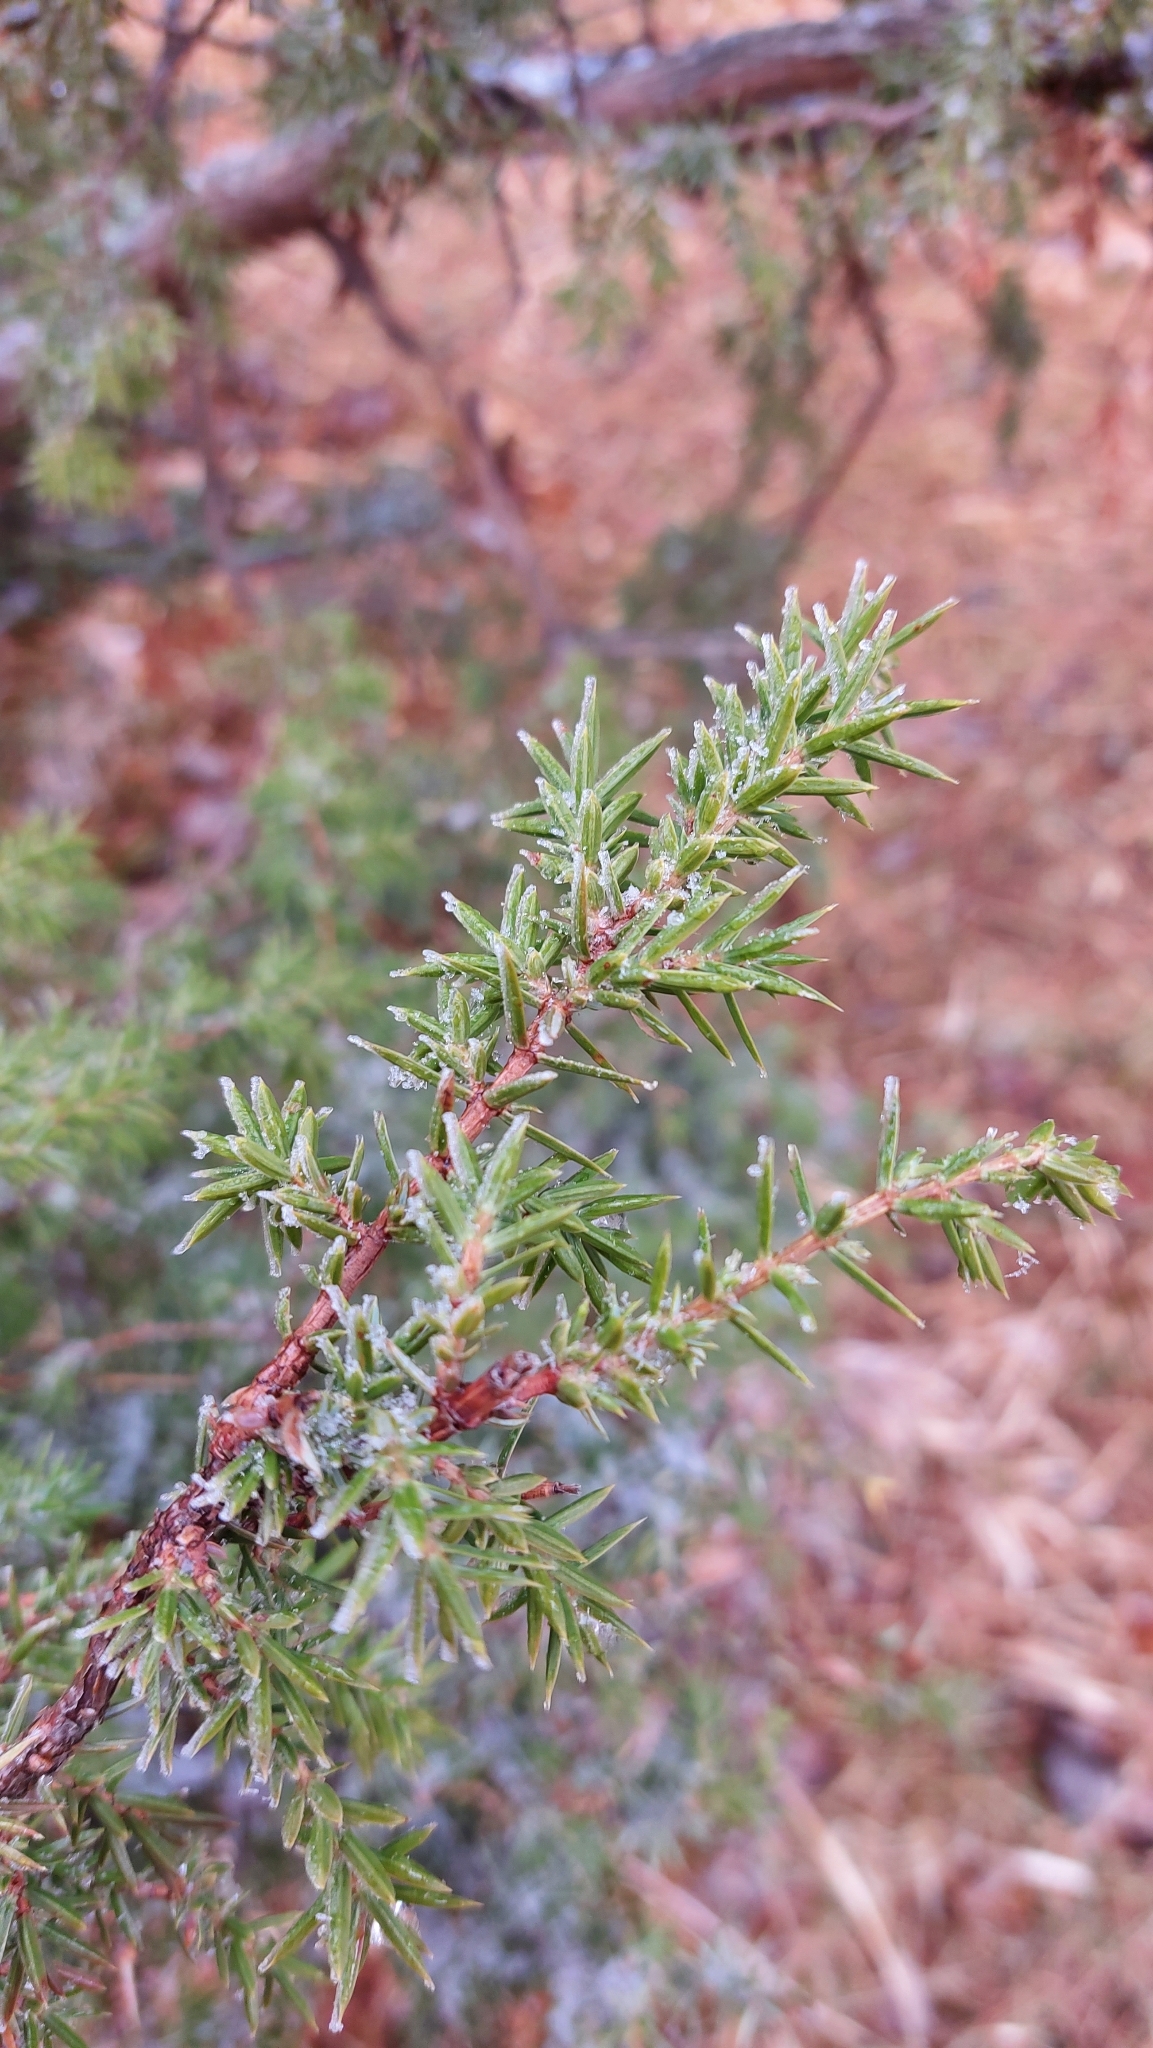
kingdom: Plantae
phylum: Tracheophyta
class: Pinopsida
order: Pinales
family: Cupressaceae
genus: Juniperus
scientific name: Juniperus communis
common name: Common juniper
